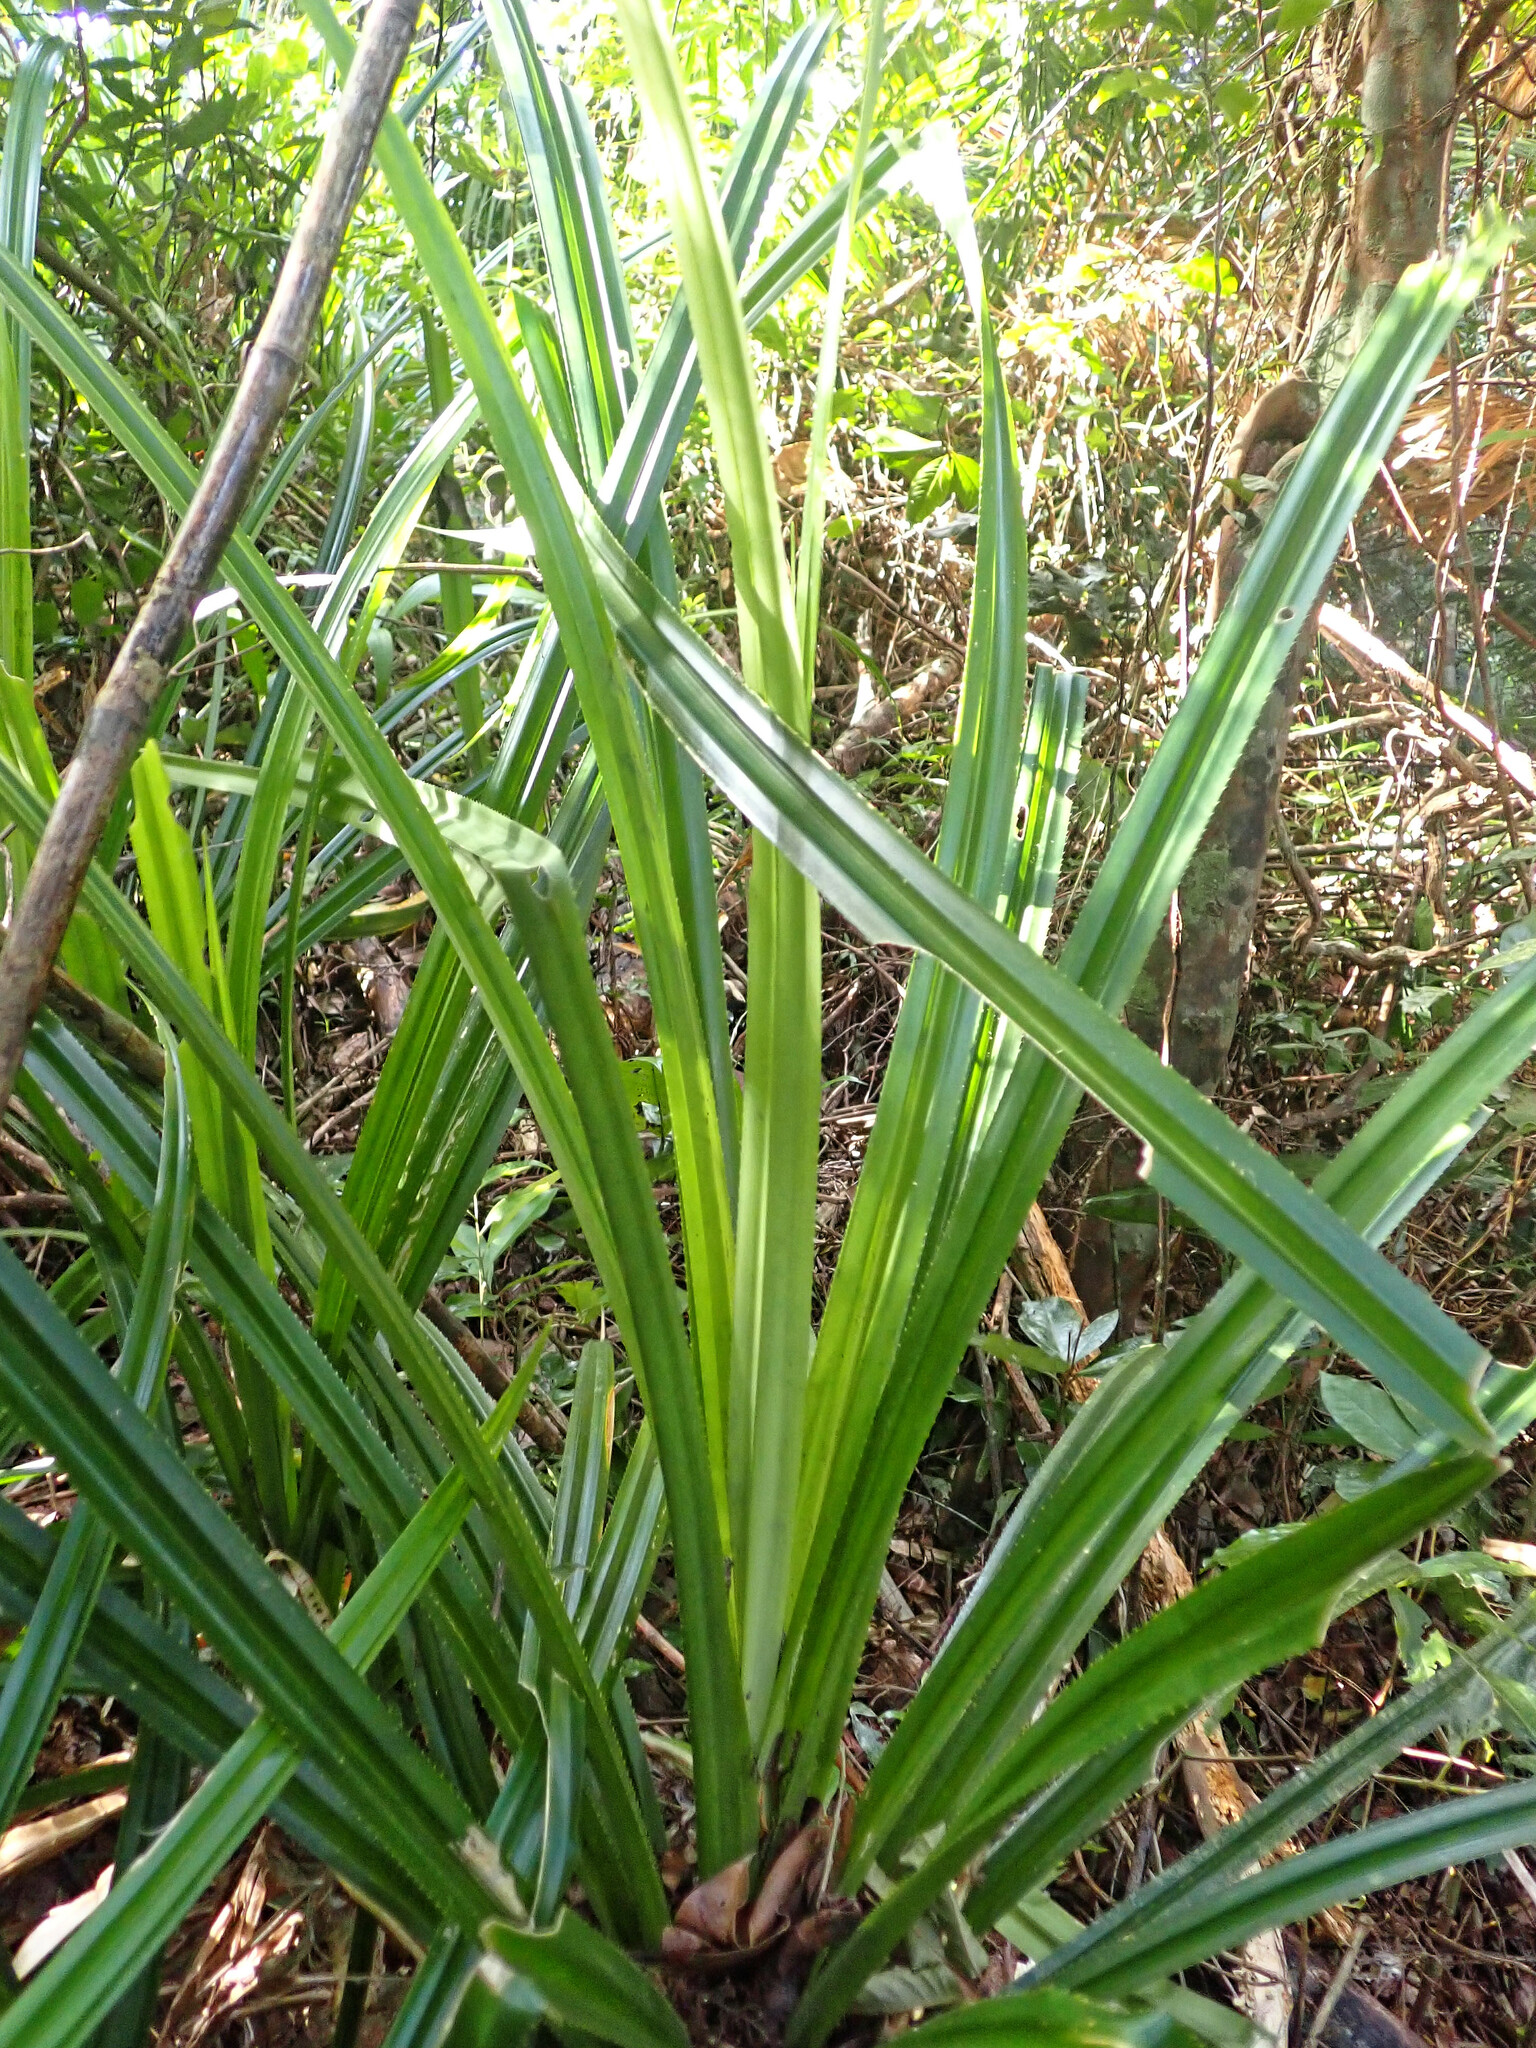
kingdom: Plantae
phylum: Tracheophyta
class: Liliopsida
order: Pandanales
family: Pandanaceae
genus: Benstonea
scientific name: Benstonea monticola
